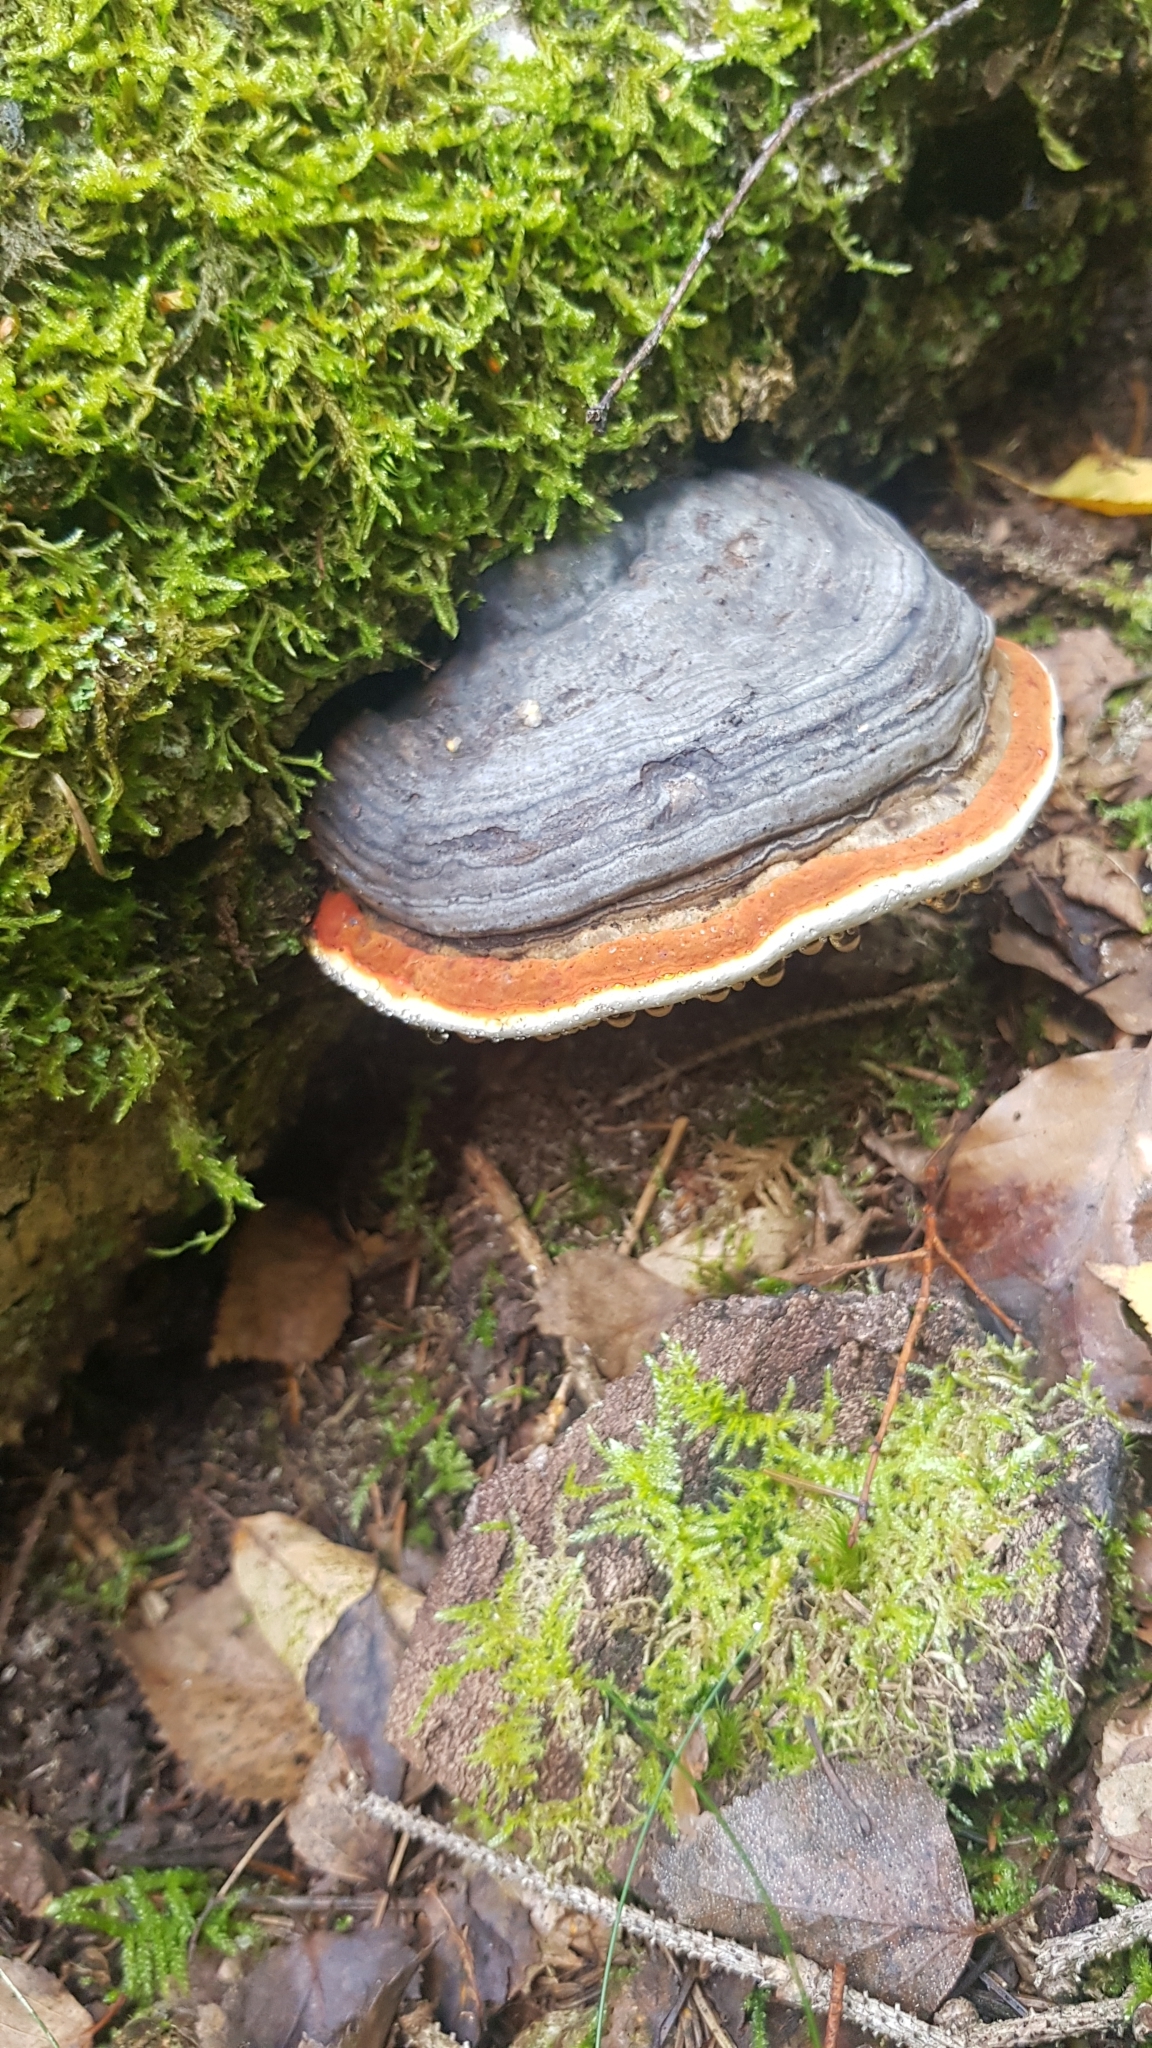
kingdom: Fungi
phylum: Basidiomycota
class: Agaricomycetes
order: Polyporales
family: Fomitopsidaceae
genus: Fomitopsis
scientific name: Fomitopsis pinicola
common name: Red-belted bracket
